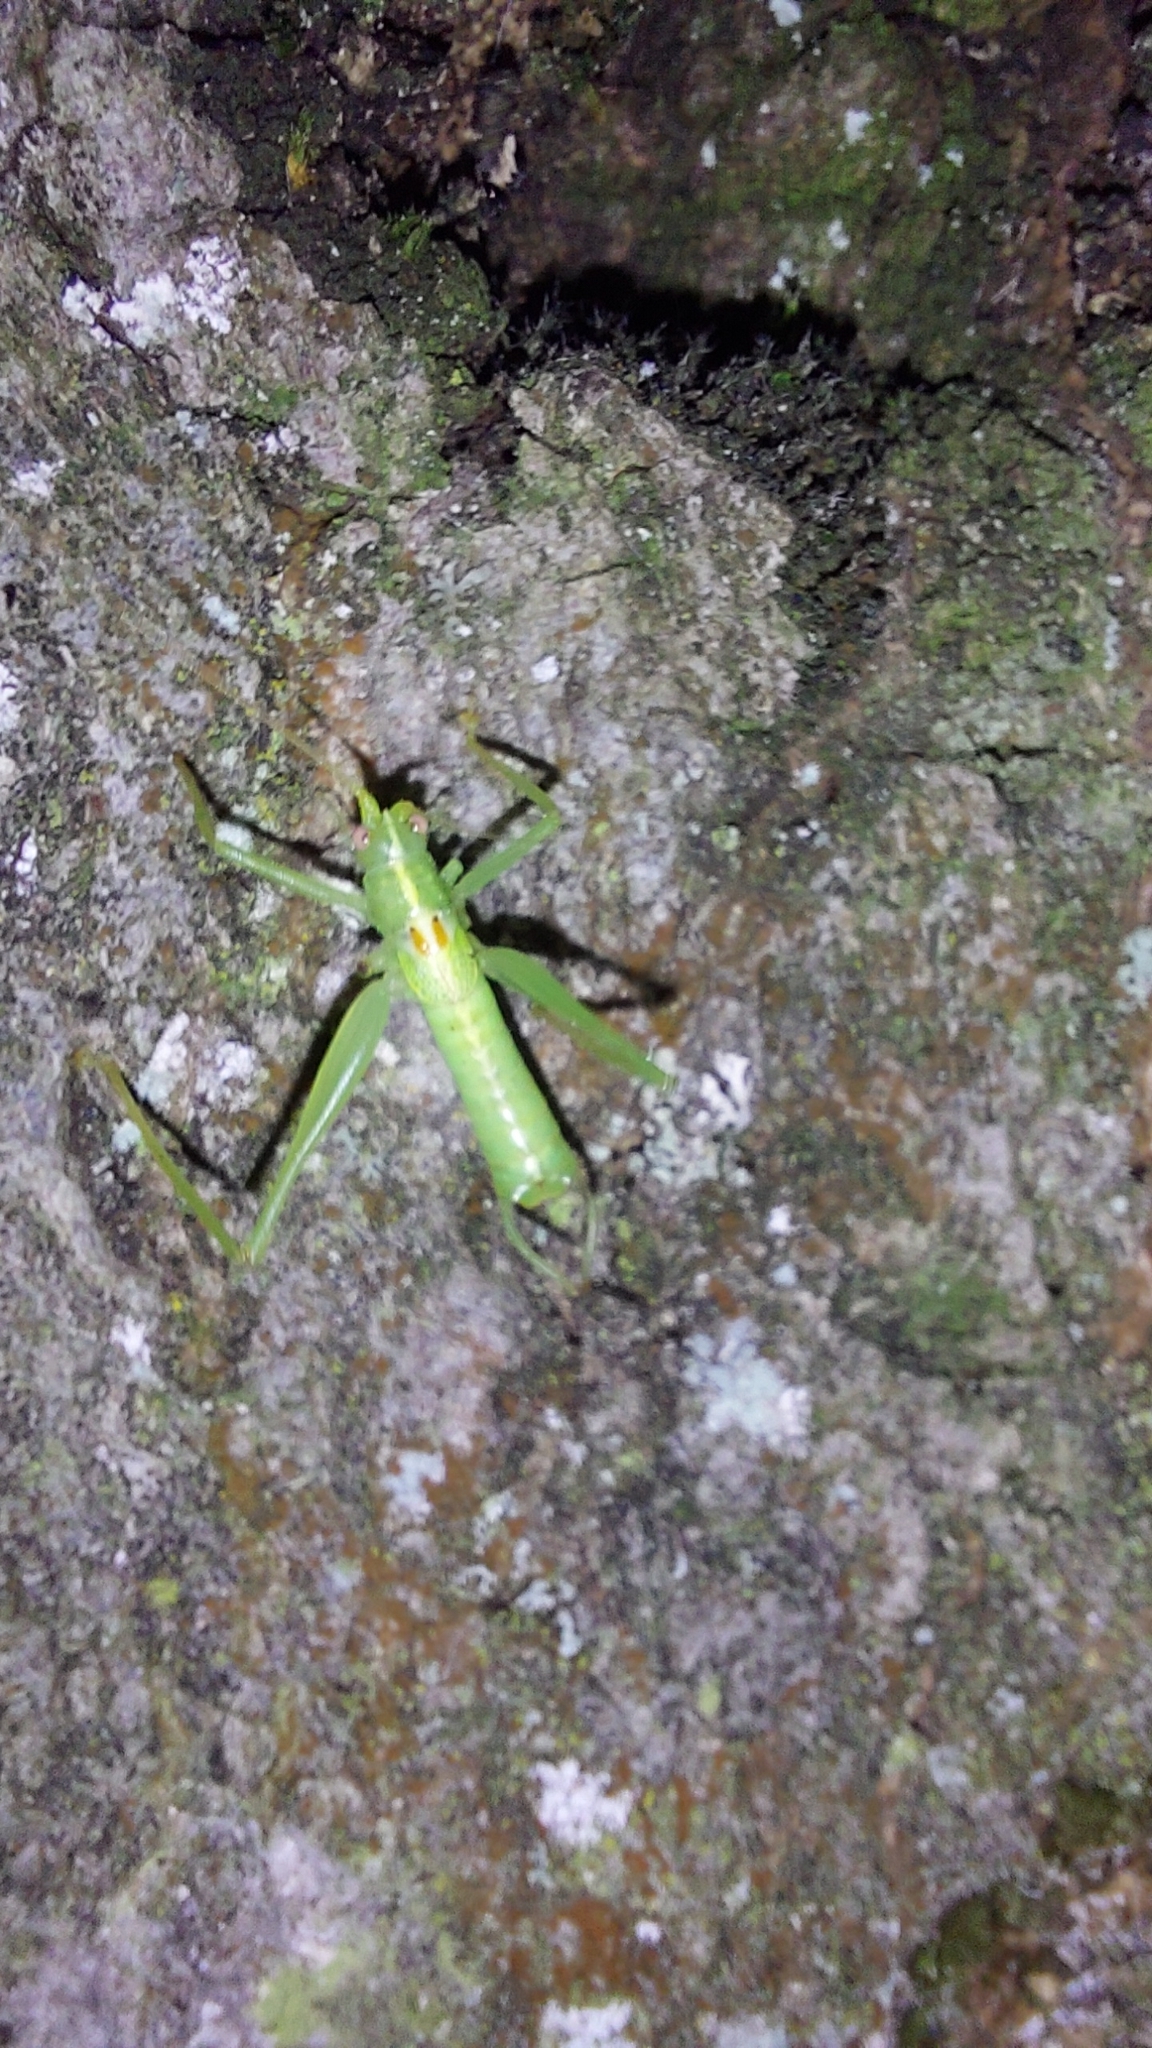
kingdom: Animalia
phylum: Arthropoda
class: Insecta
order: Orthoptera
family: Tettigoniidae
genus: Meconema
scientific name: Meconema meridionale
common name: Southern oak bush-cricket
